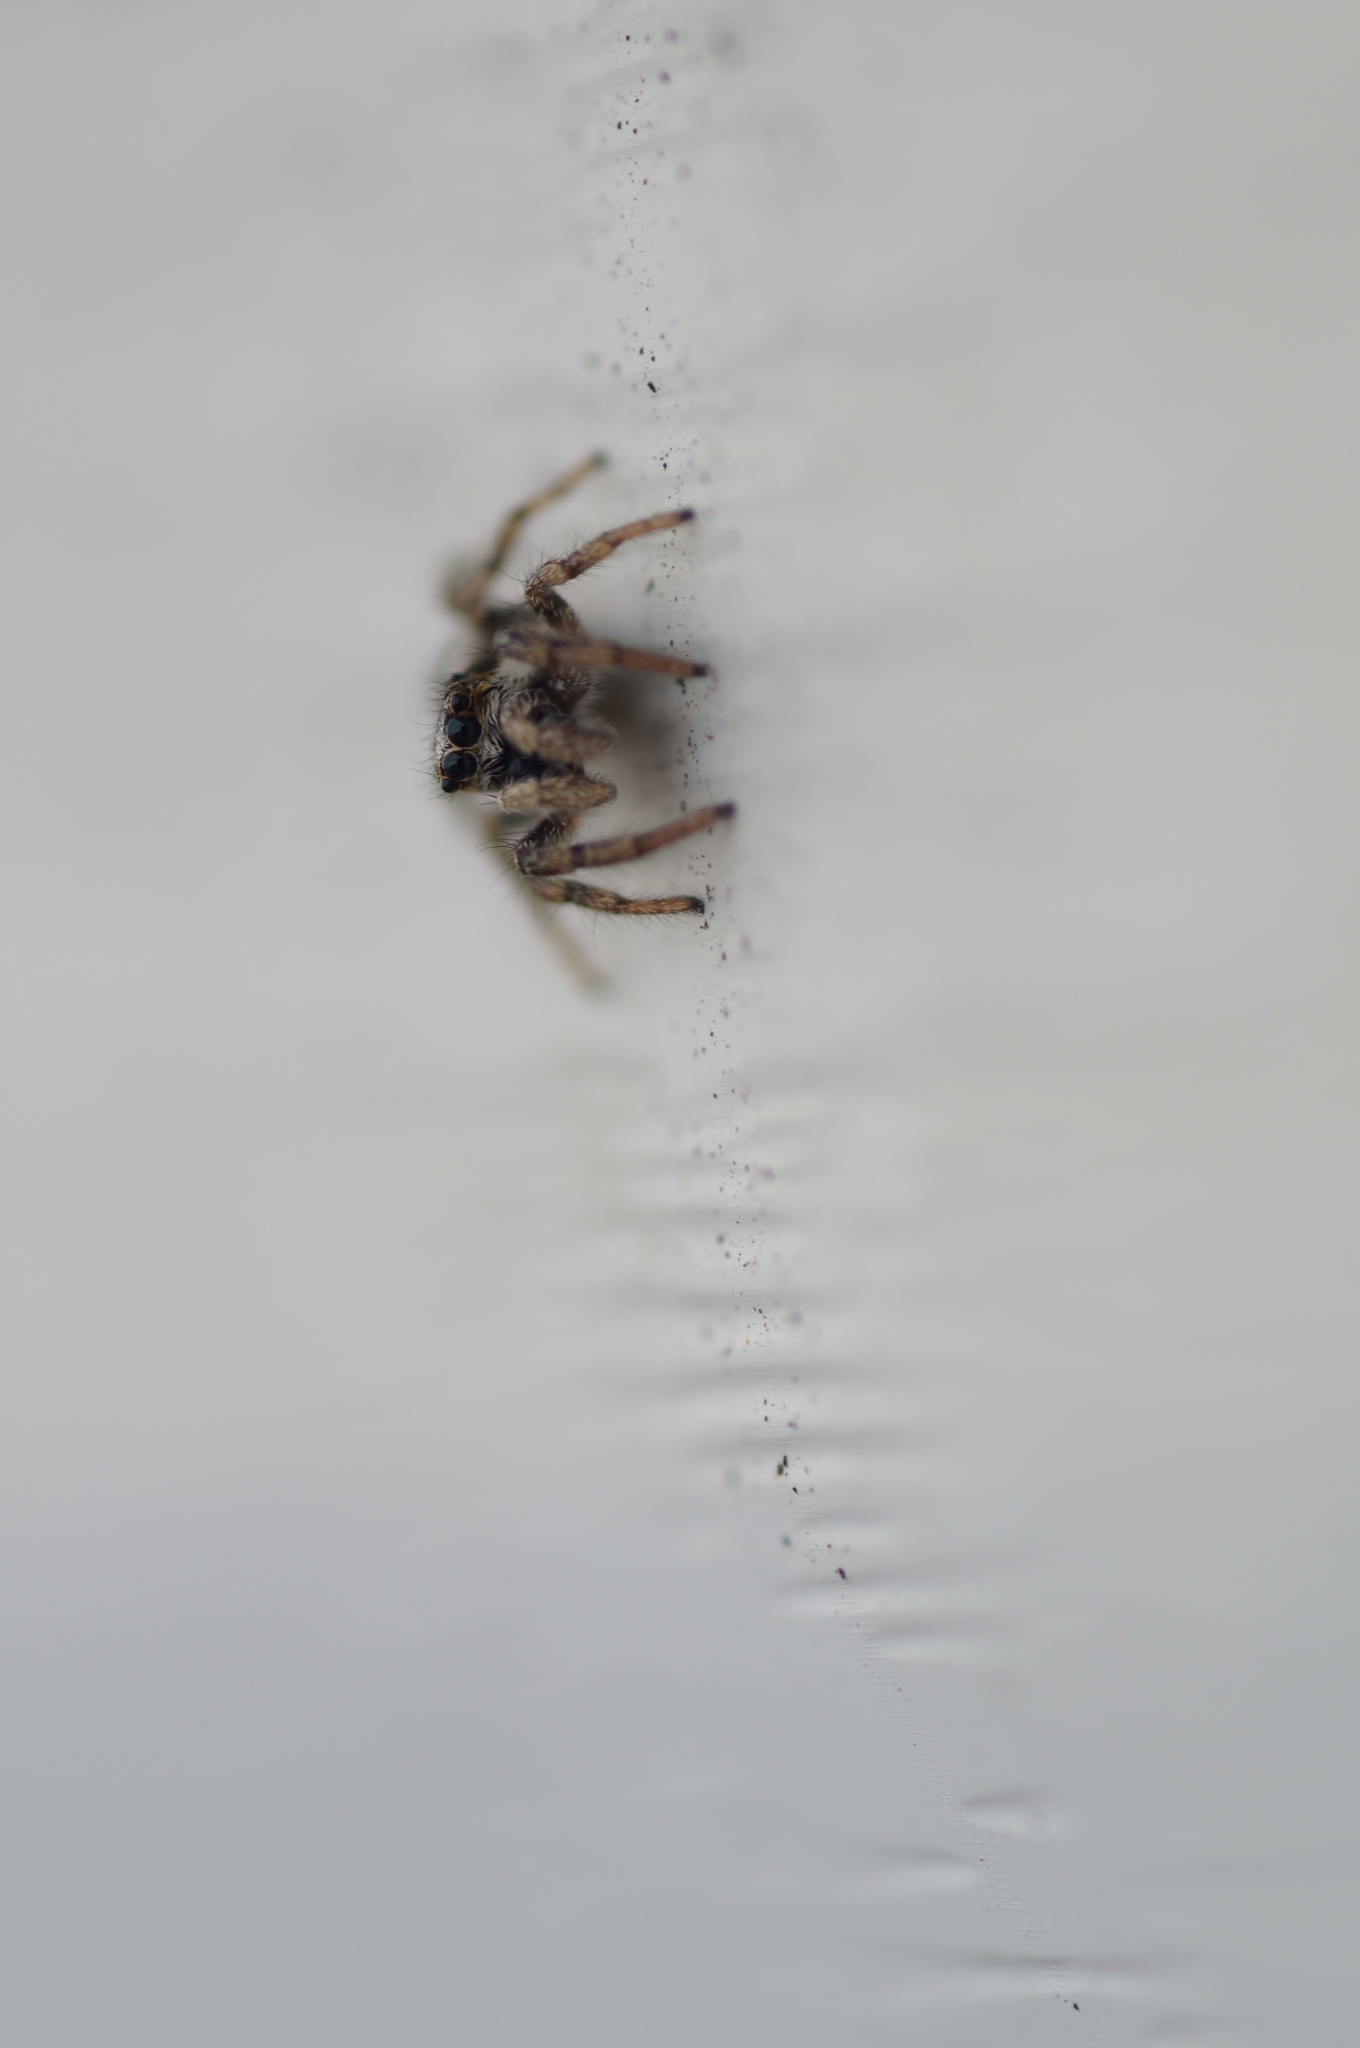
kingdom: Animalia
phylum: Arthropoda
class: Arachnida
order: Araneae
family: Salticidae
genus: Salticus
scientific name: Salticus scenicus
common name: Zebra jumper
